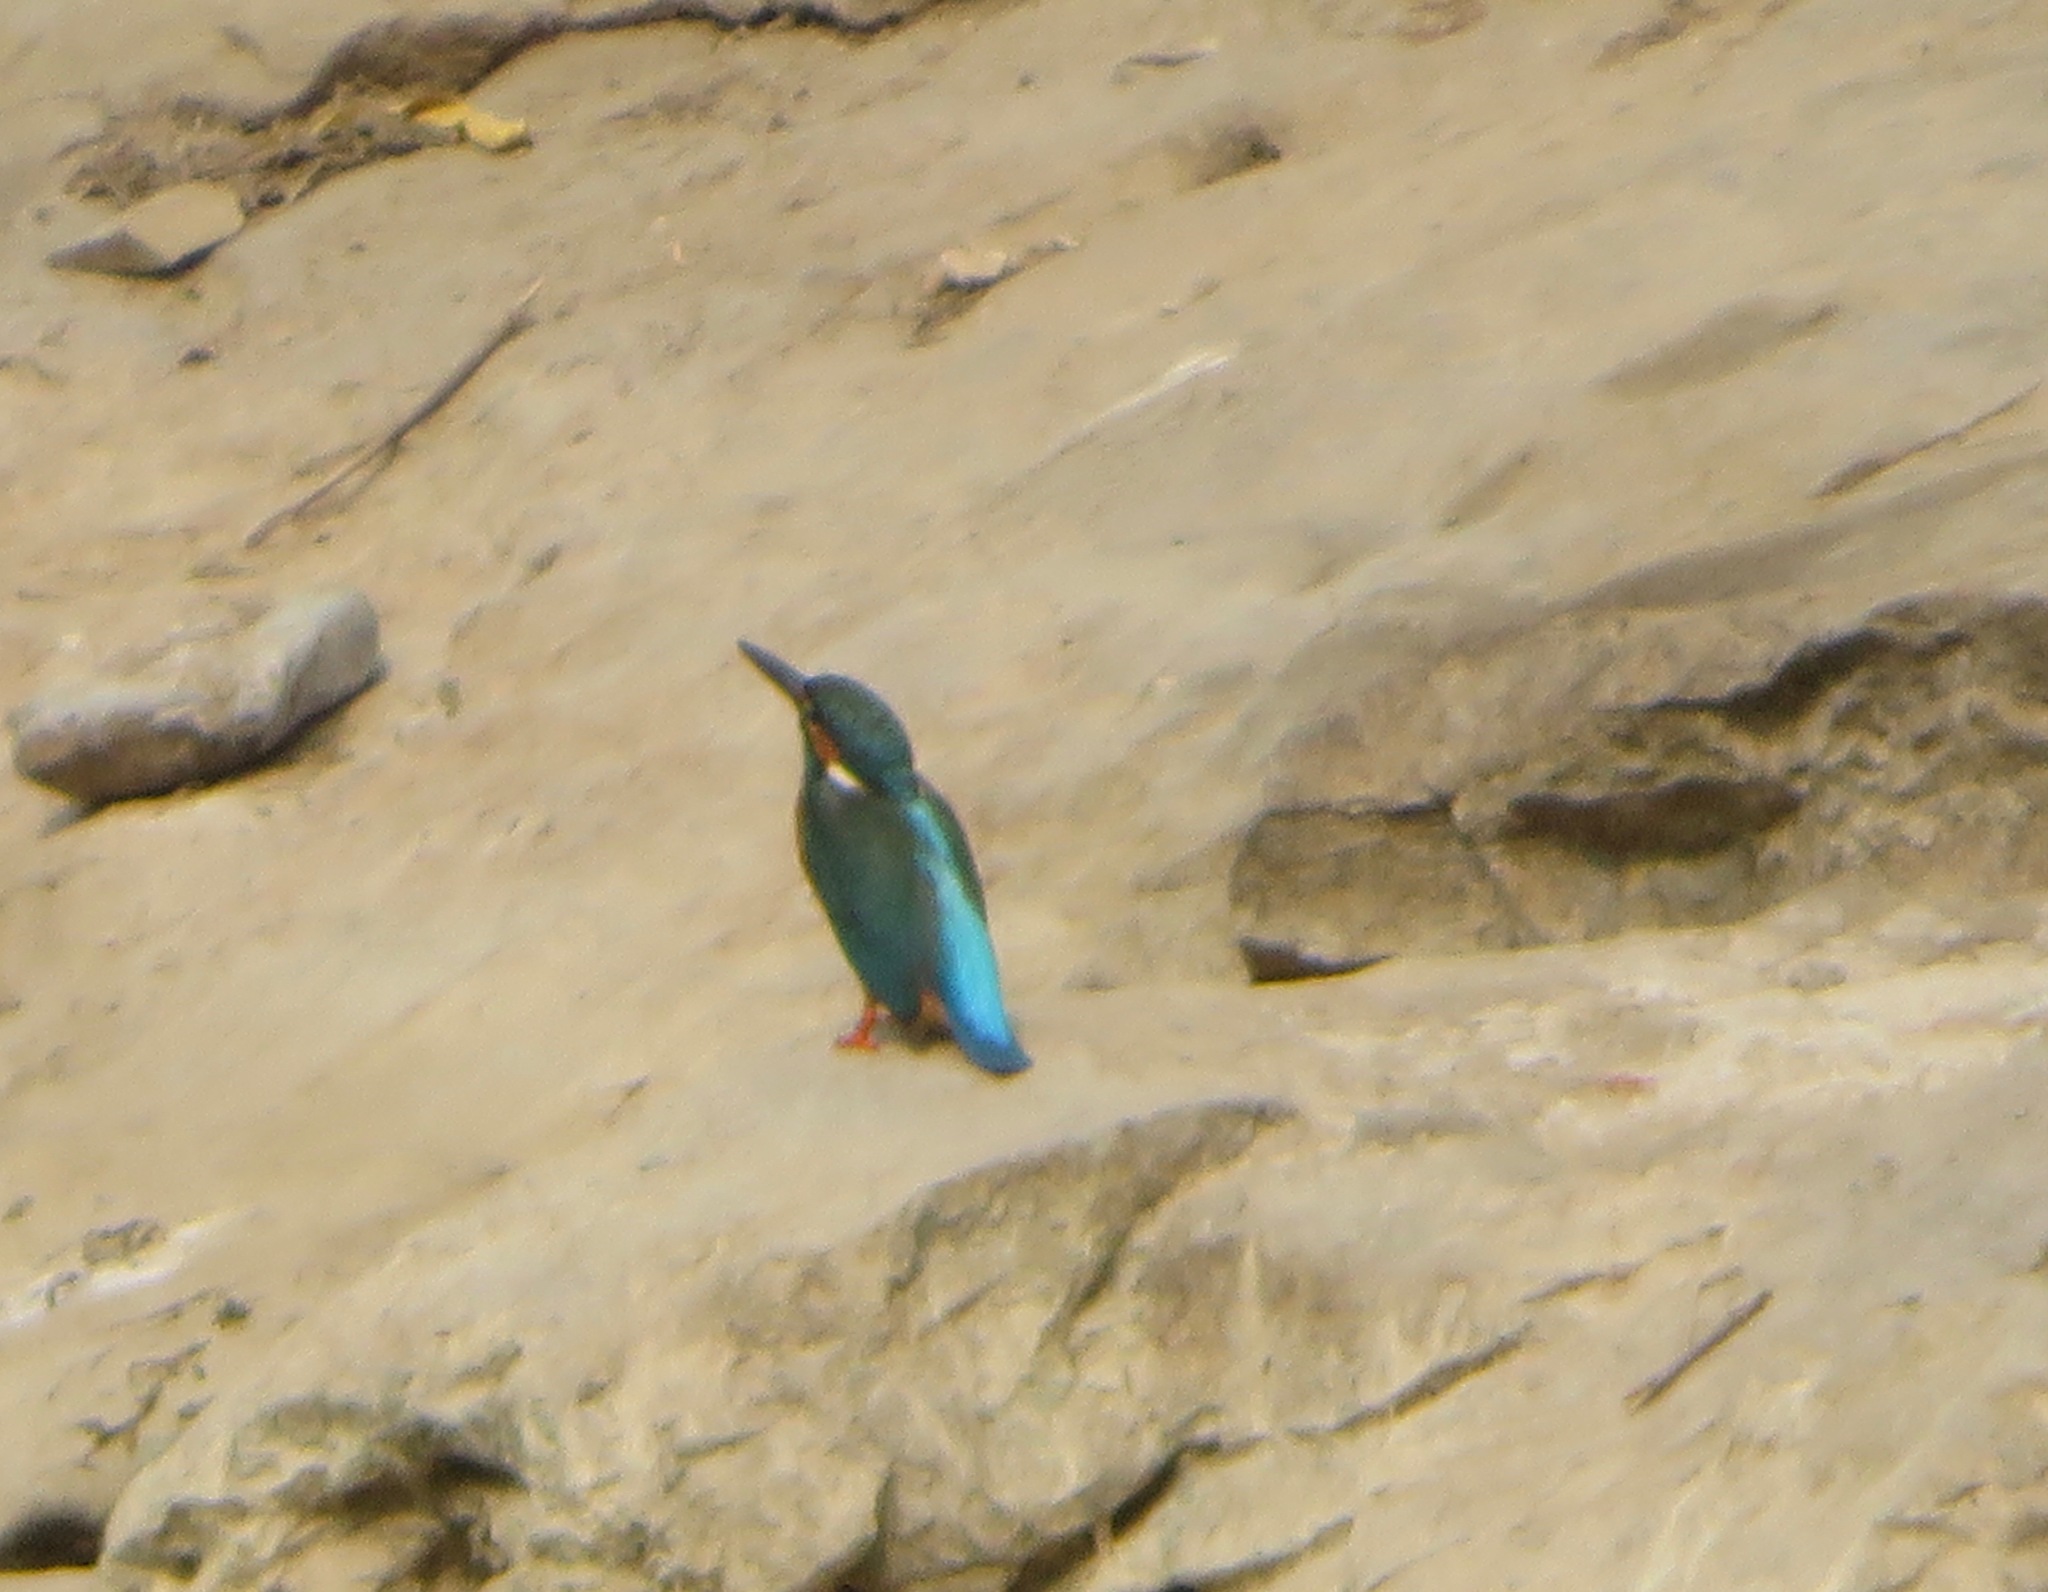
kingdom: Animalia
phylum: Chordata
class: Aves
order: Coraciiformes
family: Alcedinidae
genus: Alcedo
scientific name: Alcedo atthis
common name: Common kingfisher
